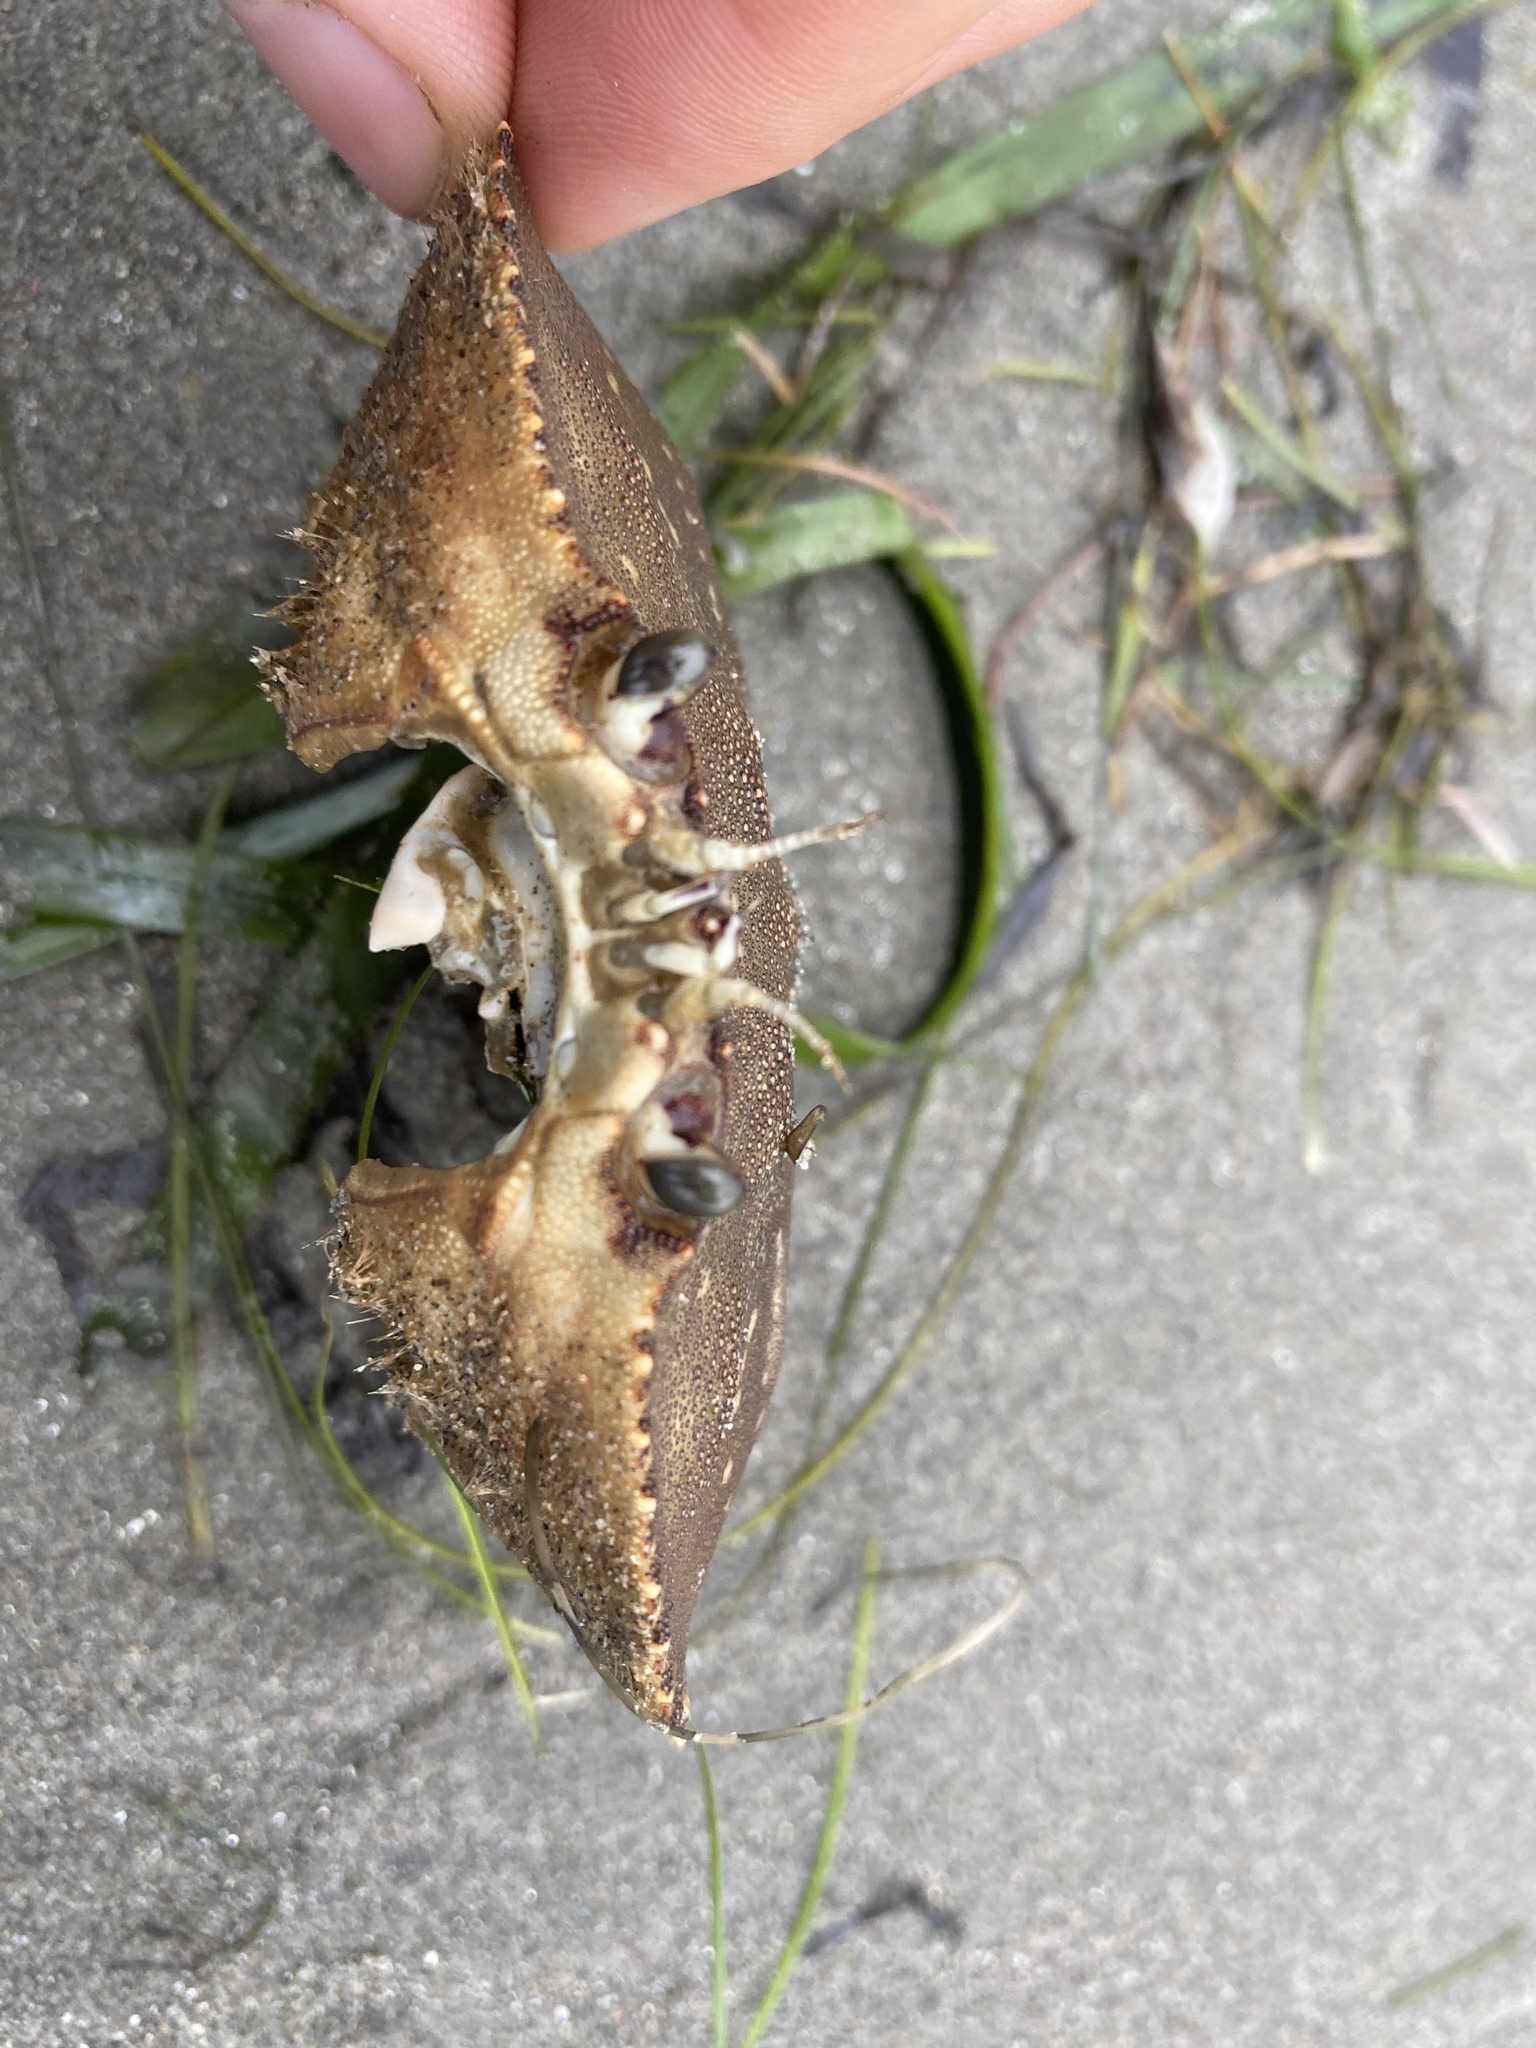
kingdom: Animalia
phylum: Arthropoda
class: Malacostraca
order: Decapoda
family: Cancridae
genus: Metacarcinus
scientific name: Metacarcinus magister
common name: Californian crab
